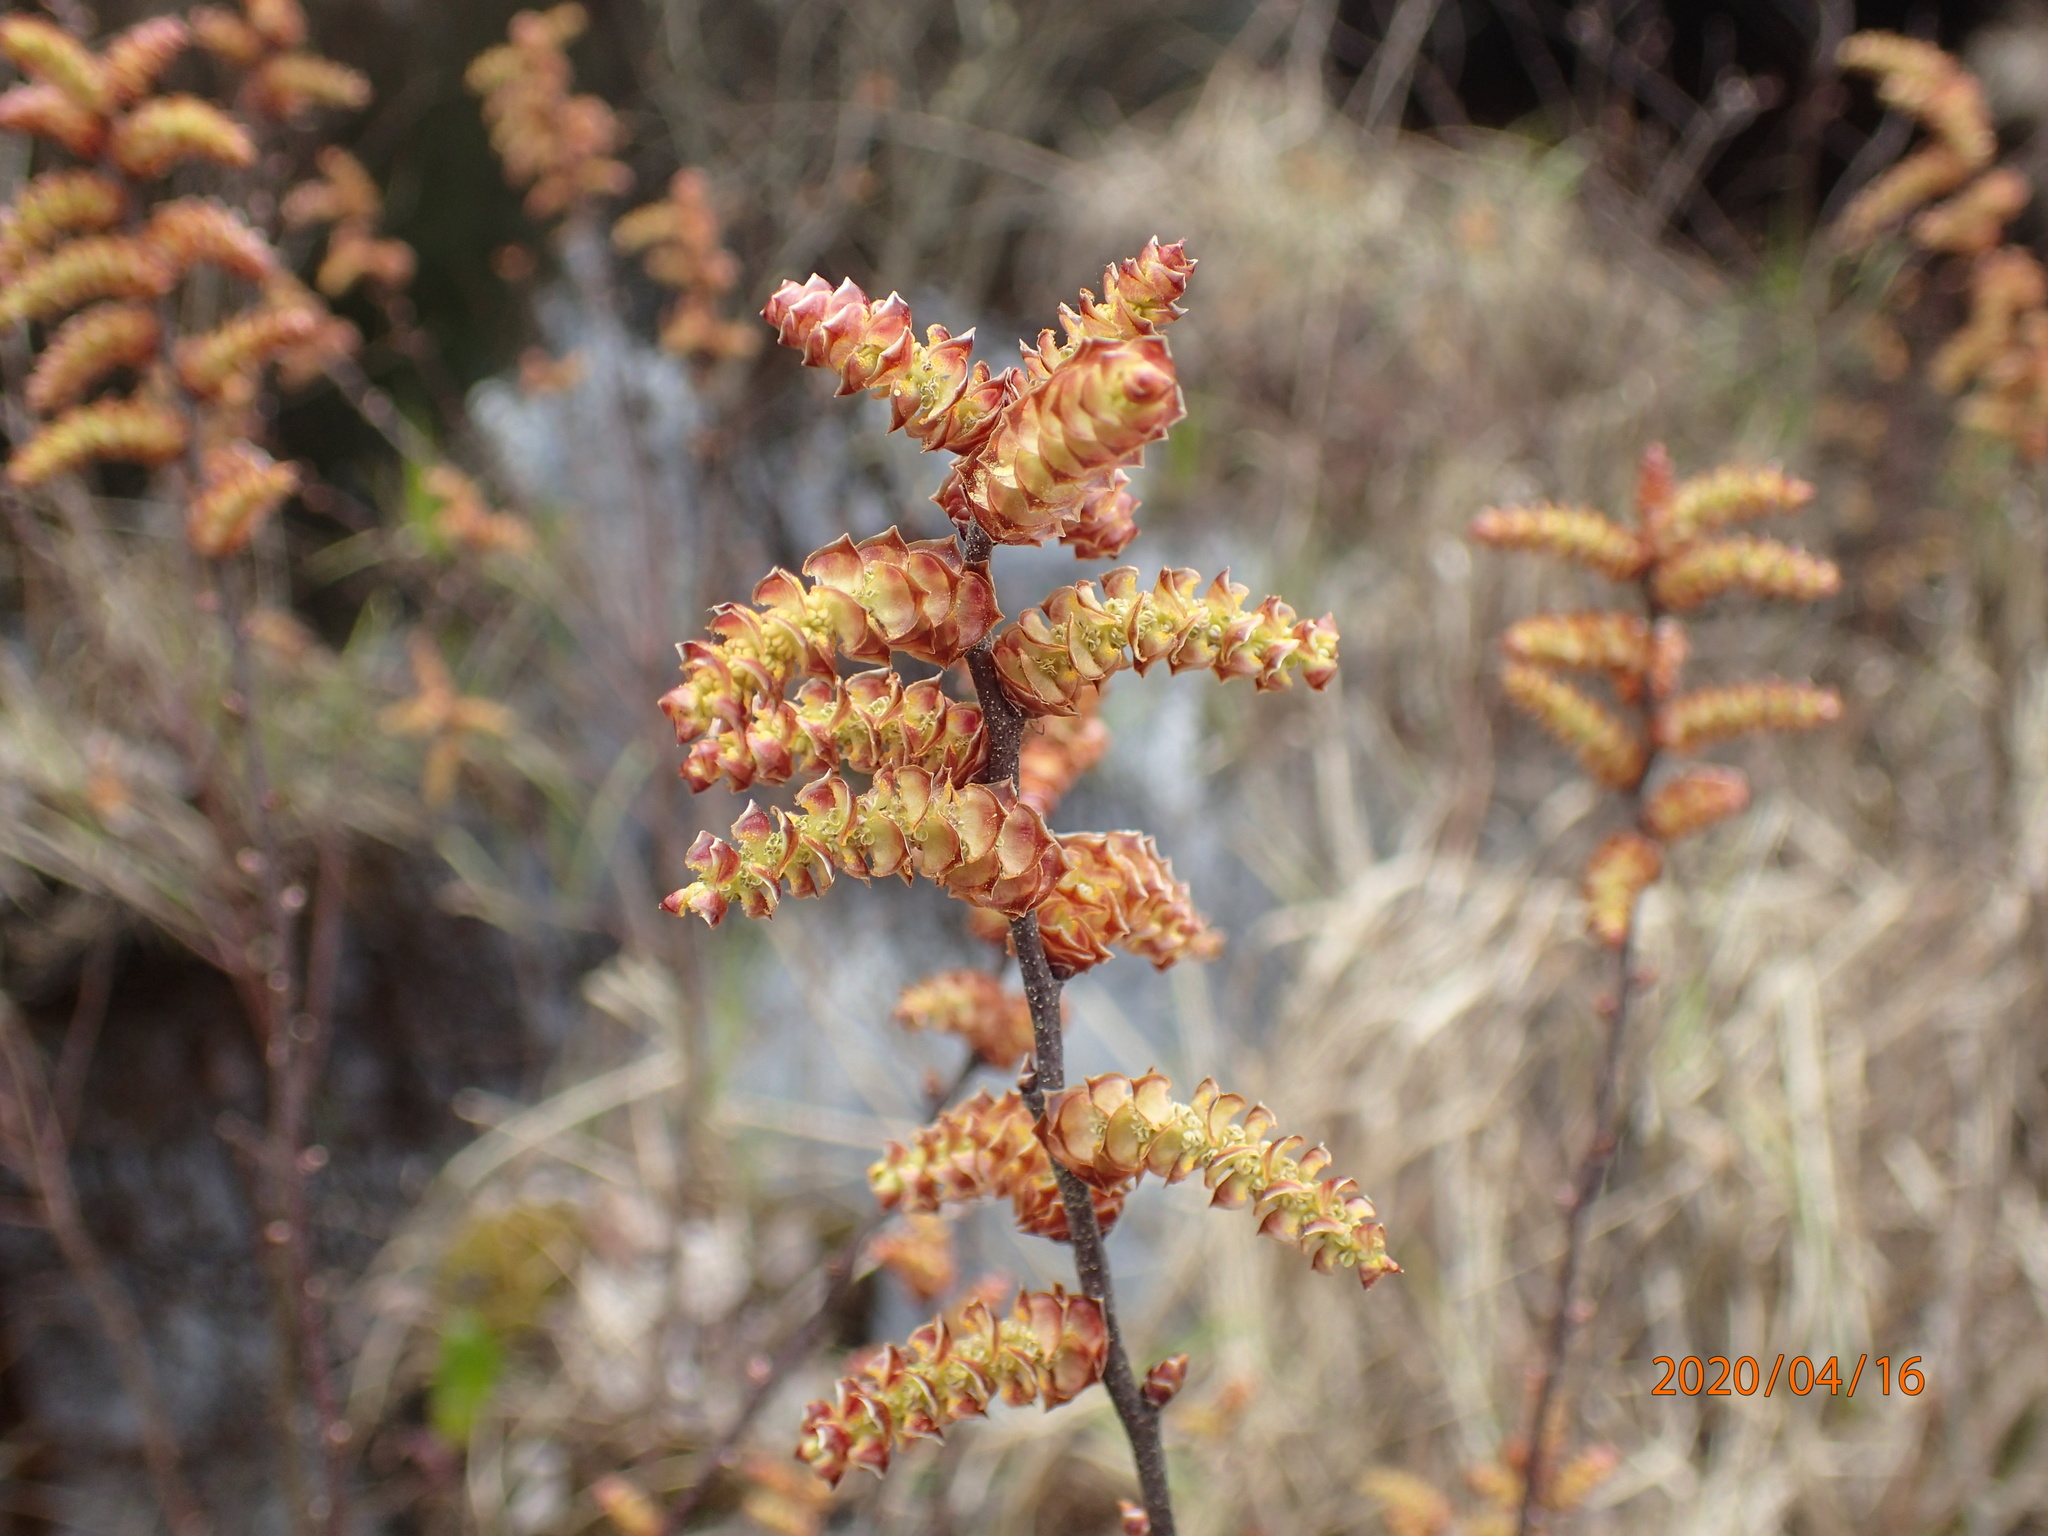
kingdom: Plantae
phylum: Tracheophyta
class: Magnoliopsida
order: Fagales
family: Myricaceae
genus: Myrica
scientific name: Myrica gale
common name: Sweet gale
